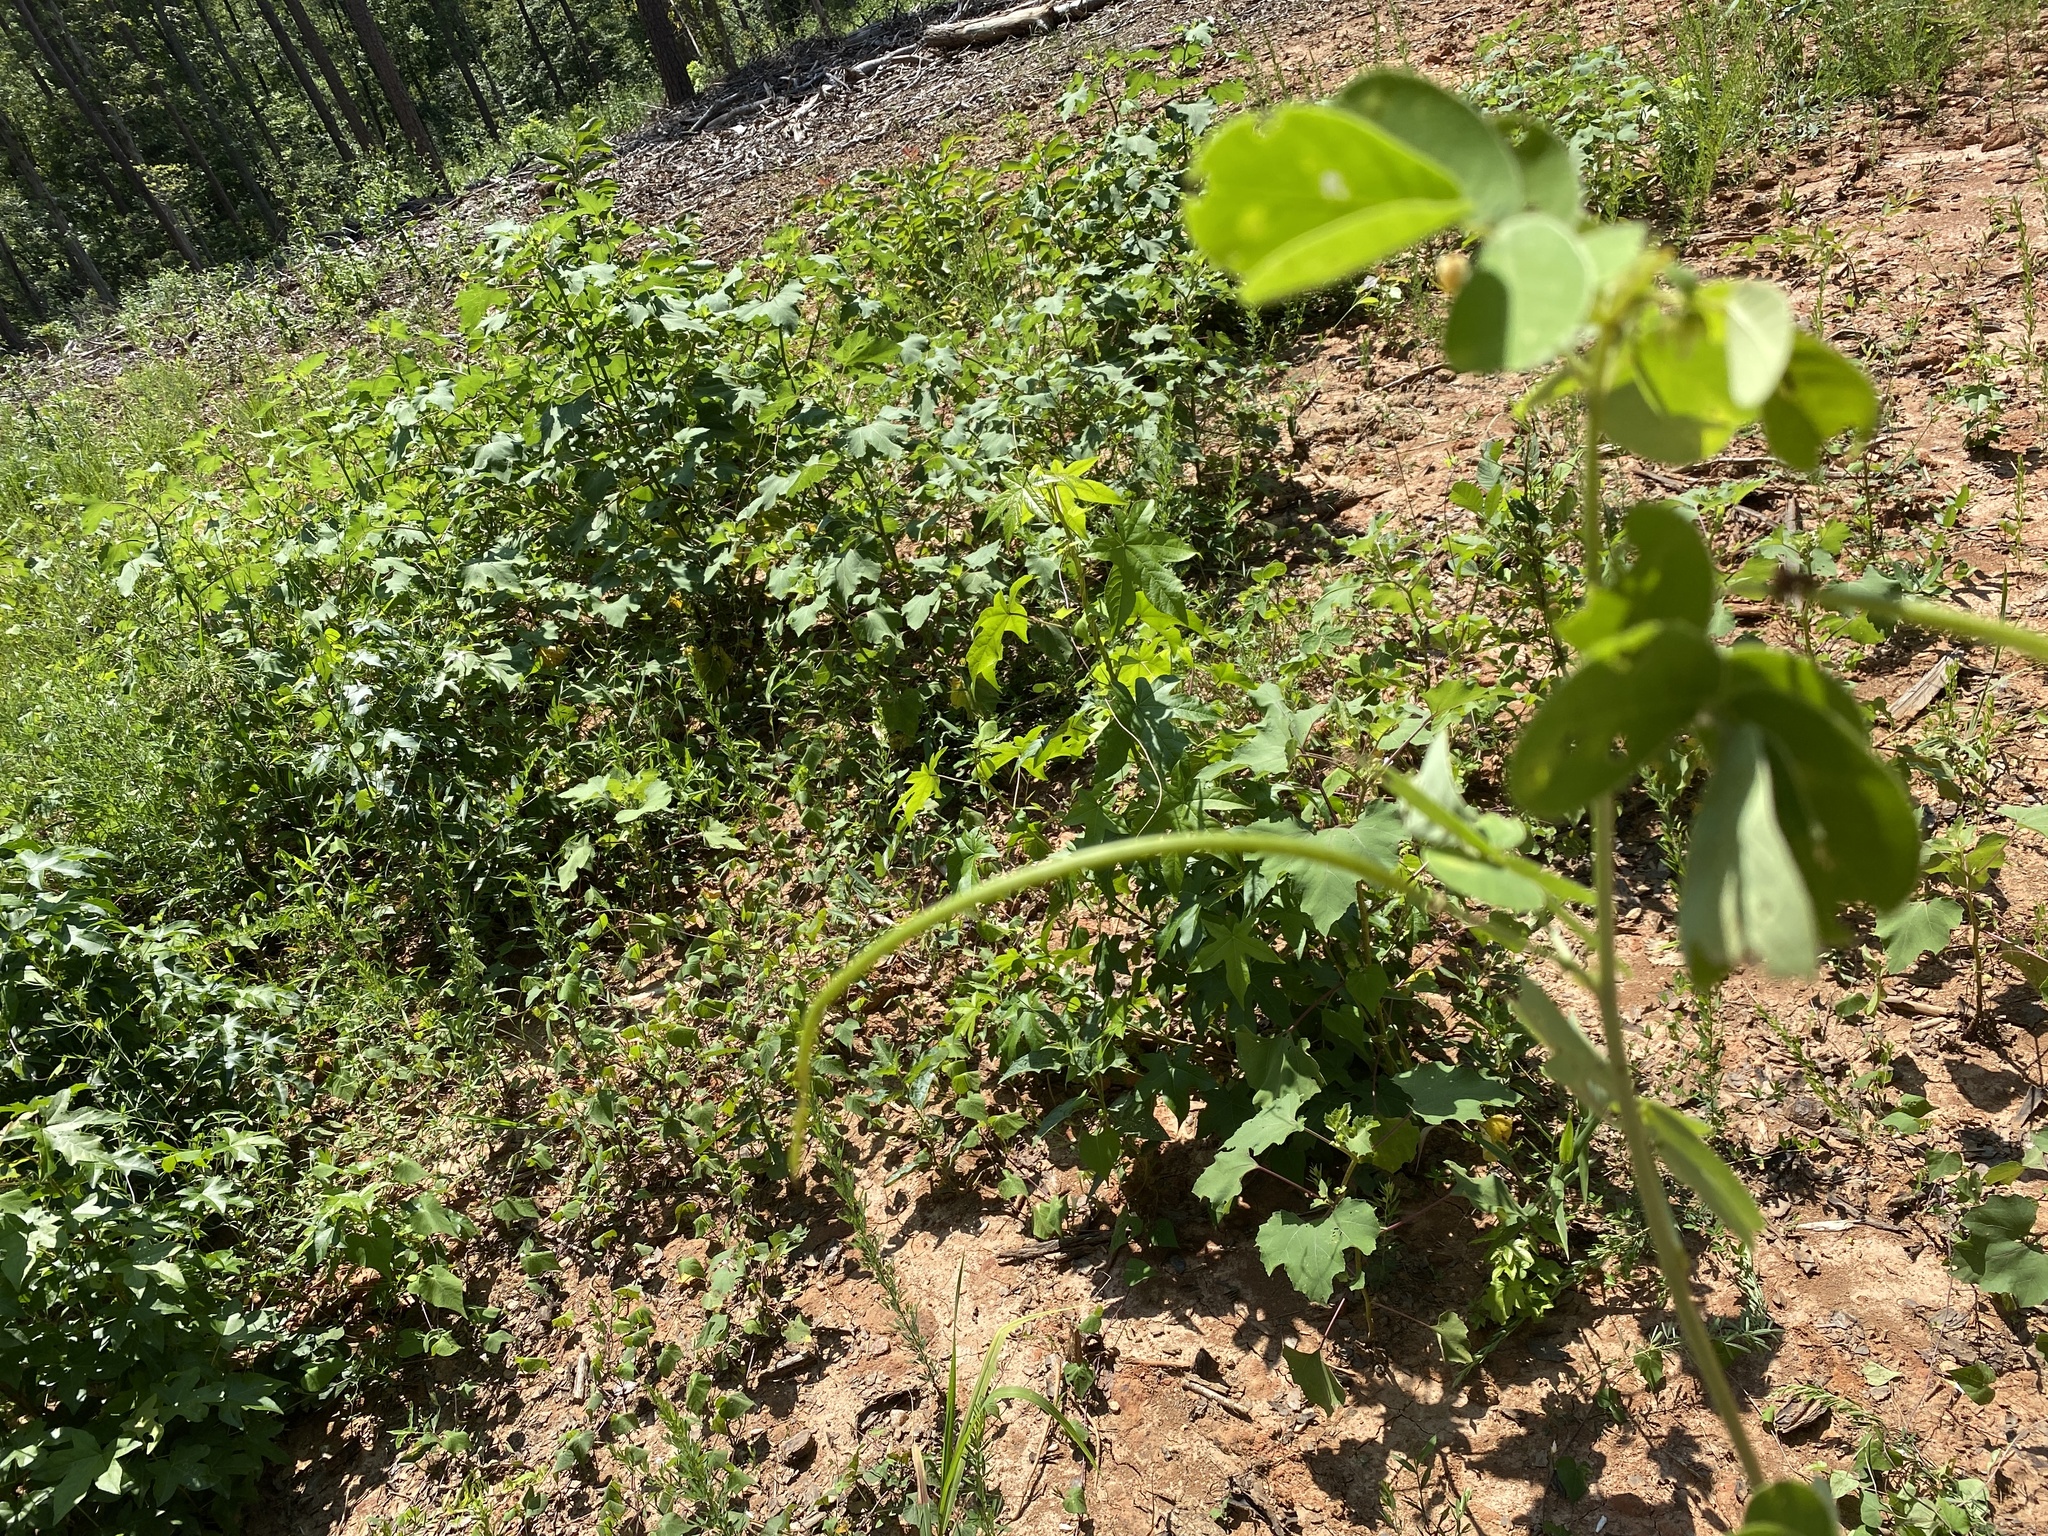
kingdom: Plantae
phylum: Tracheophyta
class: Magnoliopsida
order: Fabales
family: Fabaceae
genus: Senna
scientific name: Senna obtusifolia
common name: Java-bean
